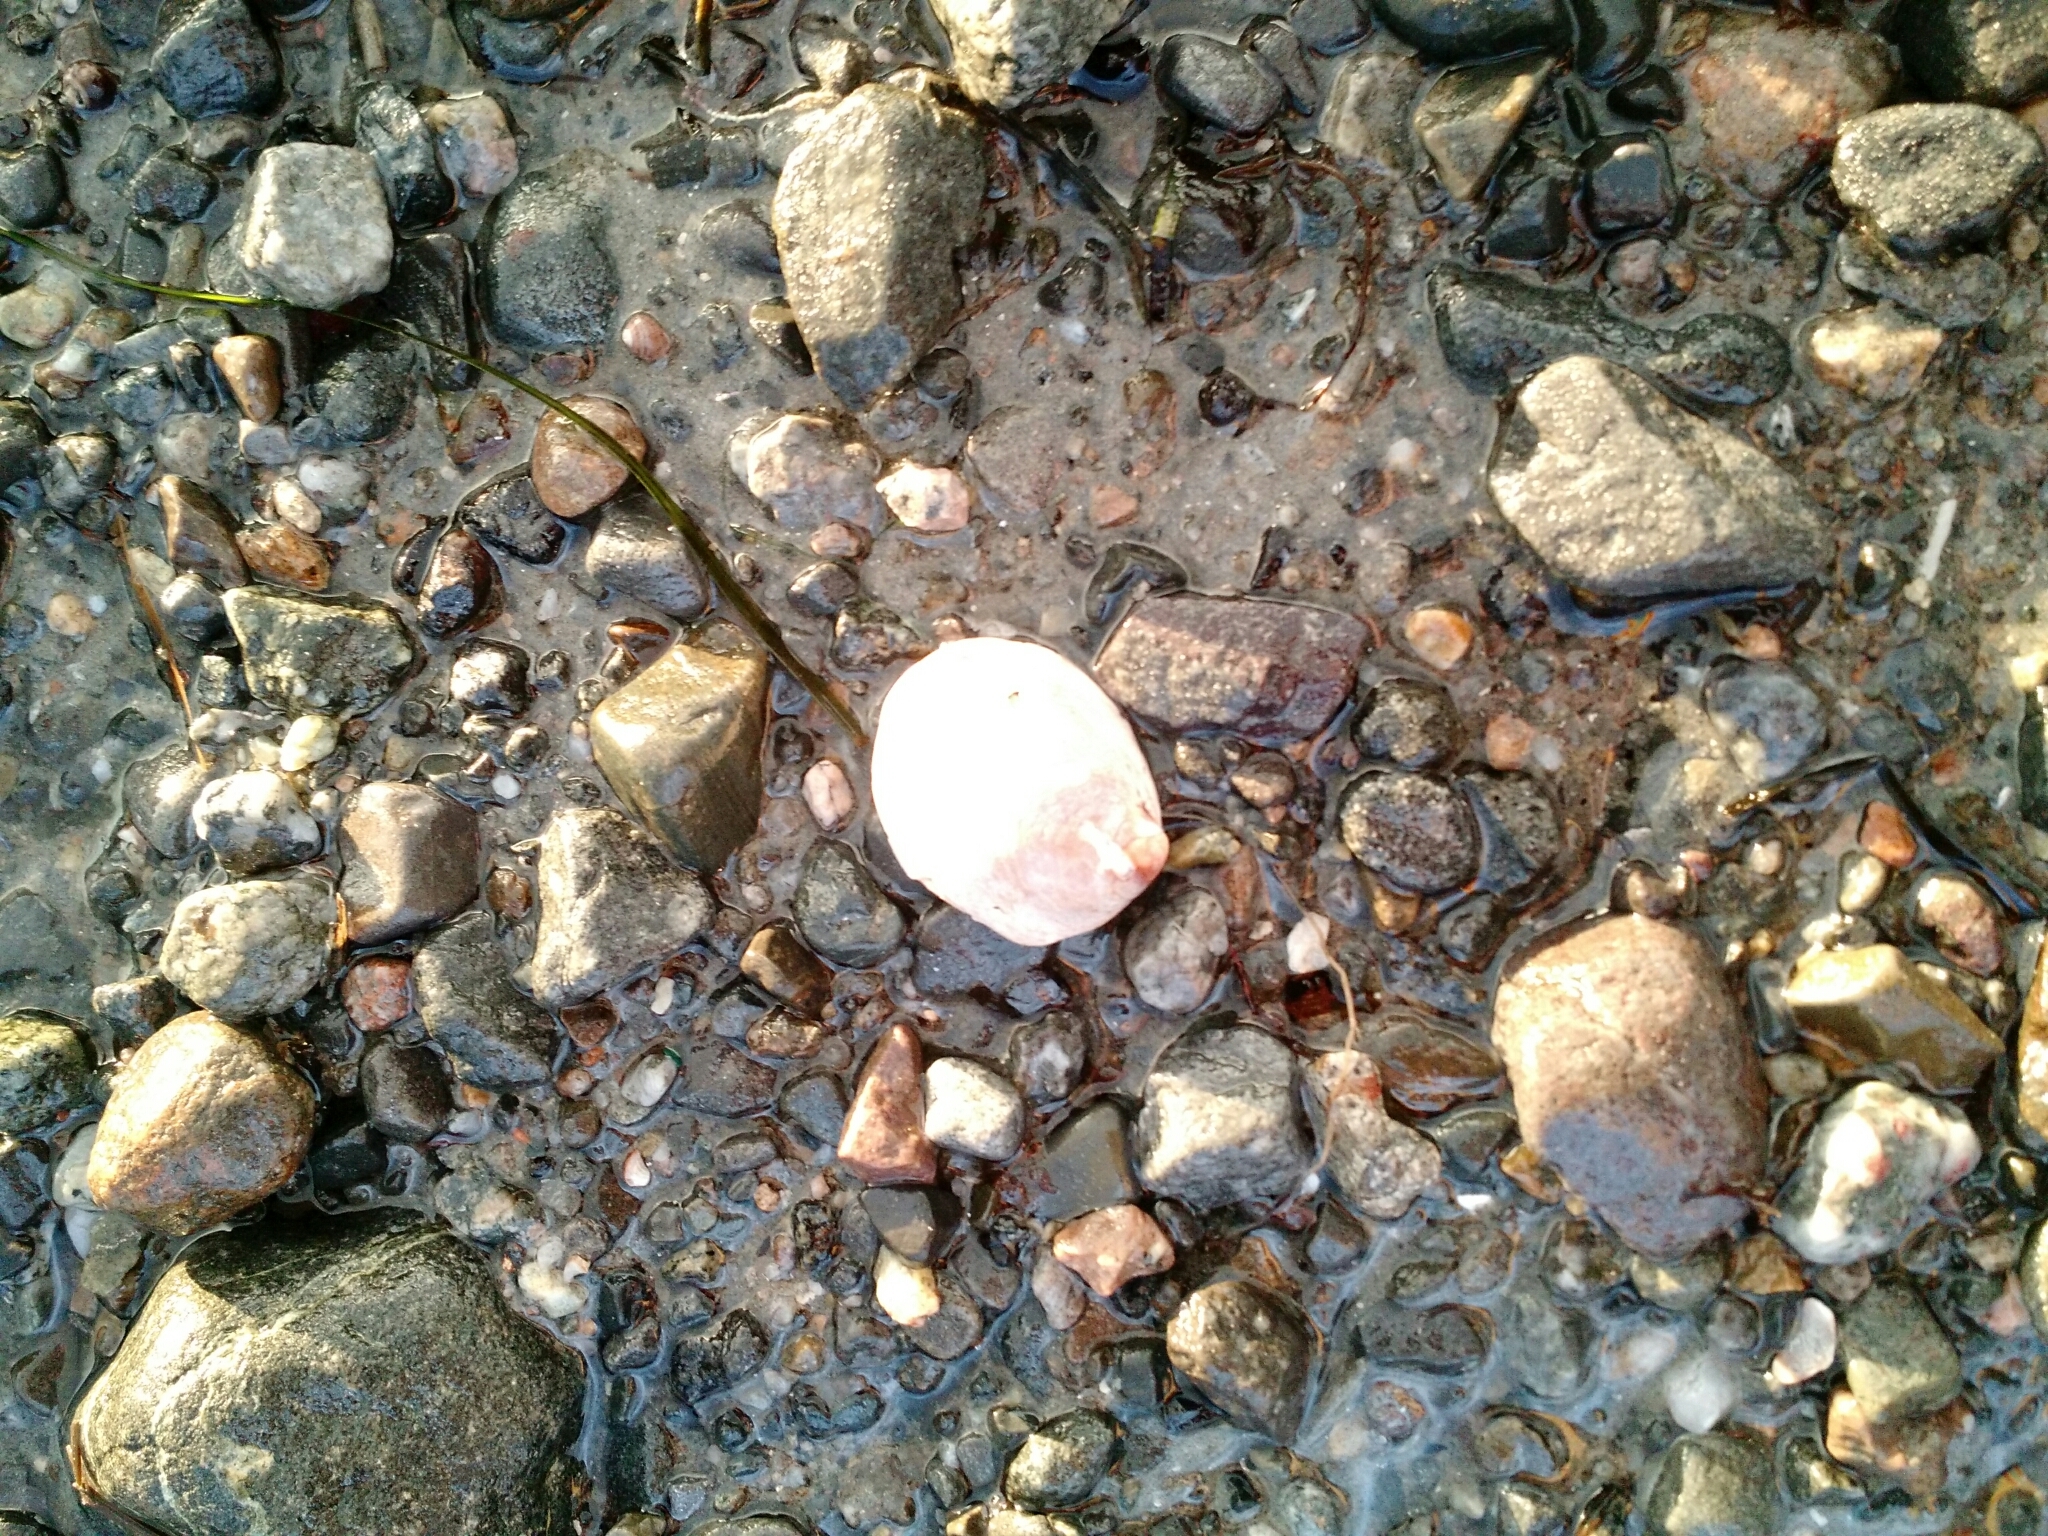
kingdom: Animalia
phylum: Mollusca
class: Bivalvia
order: Ostreida
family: Ostreidae
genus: Ostrea
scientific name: Ostrea edulis
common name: Flat oyster
